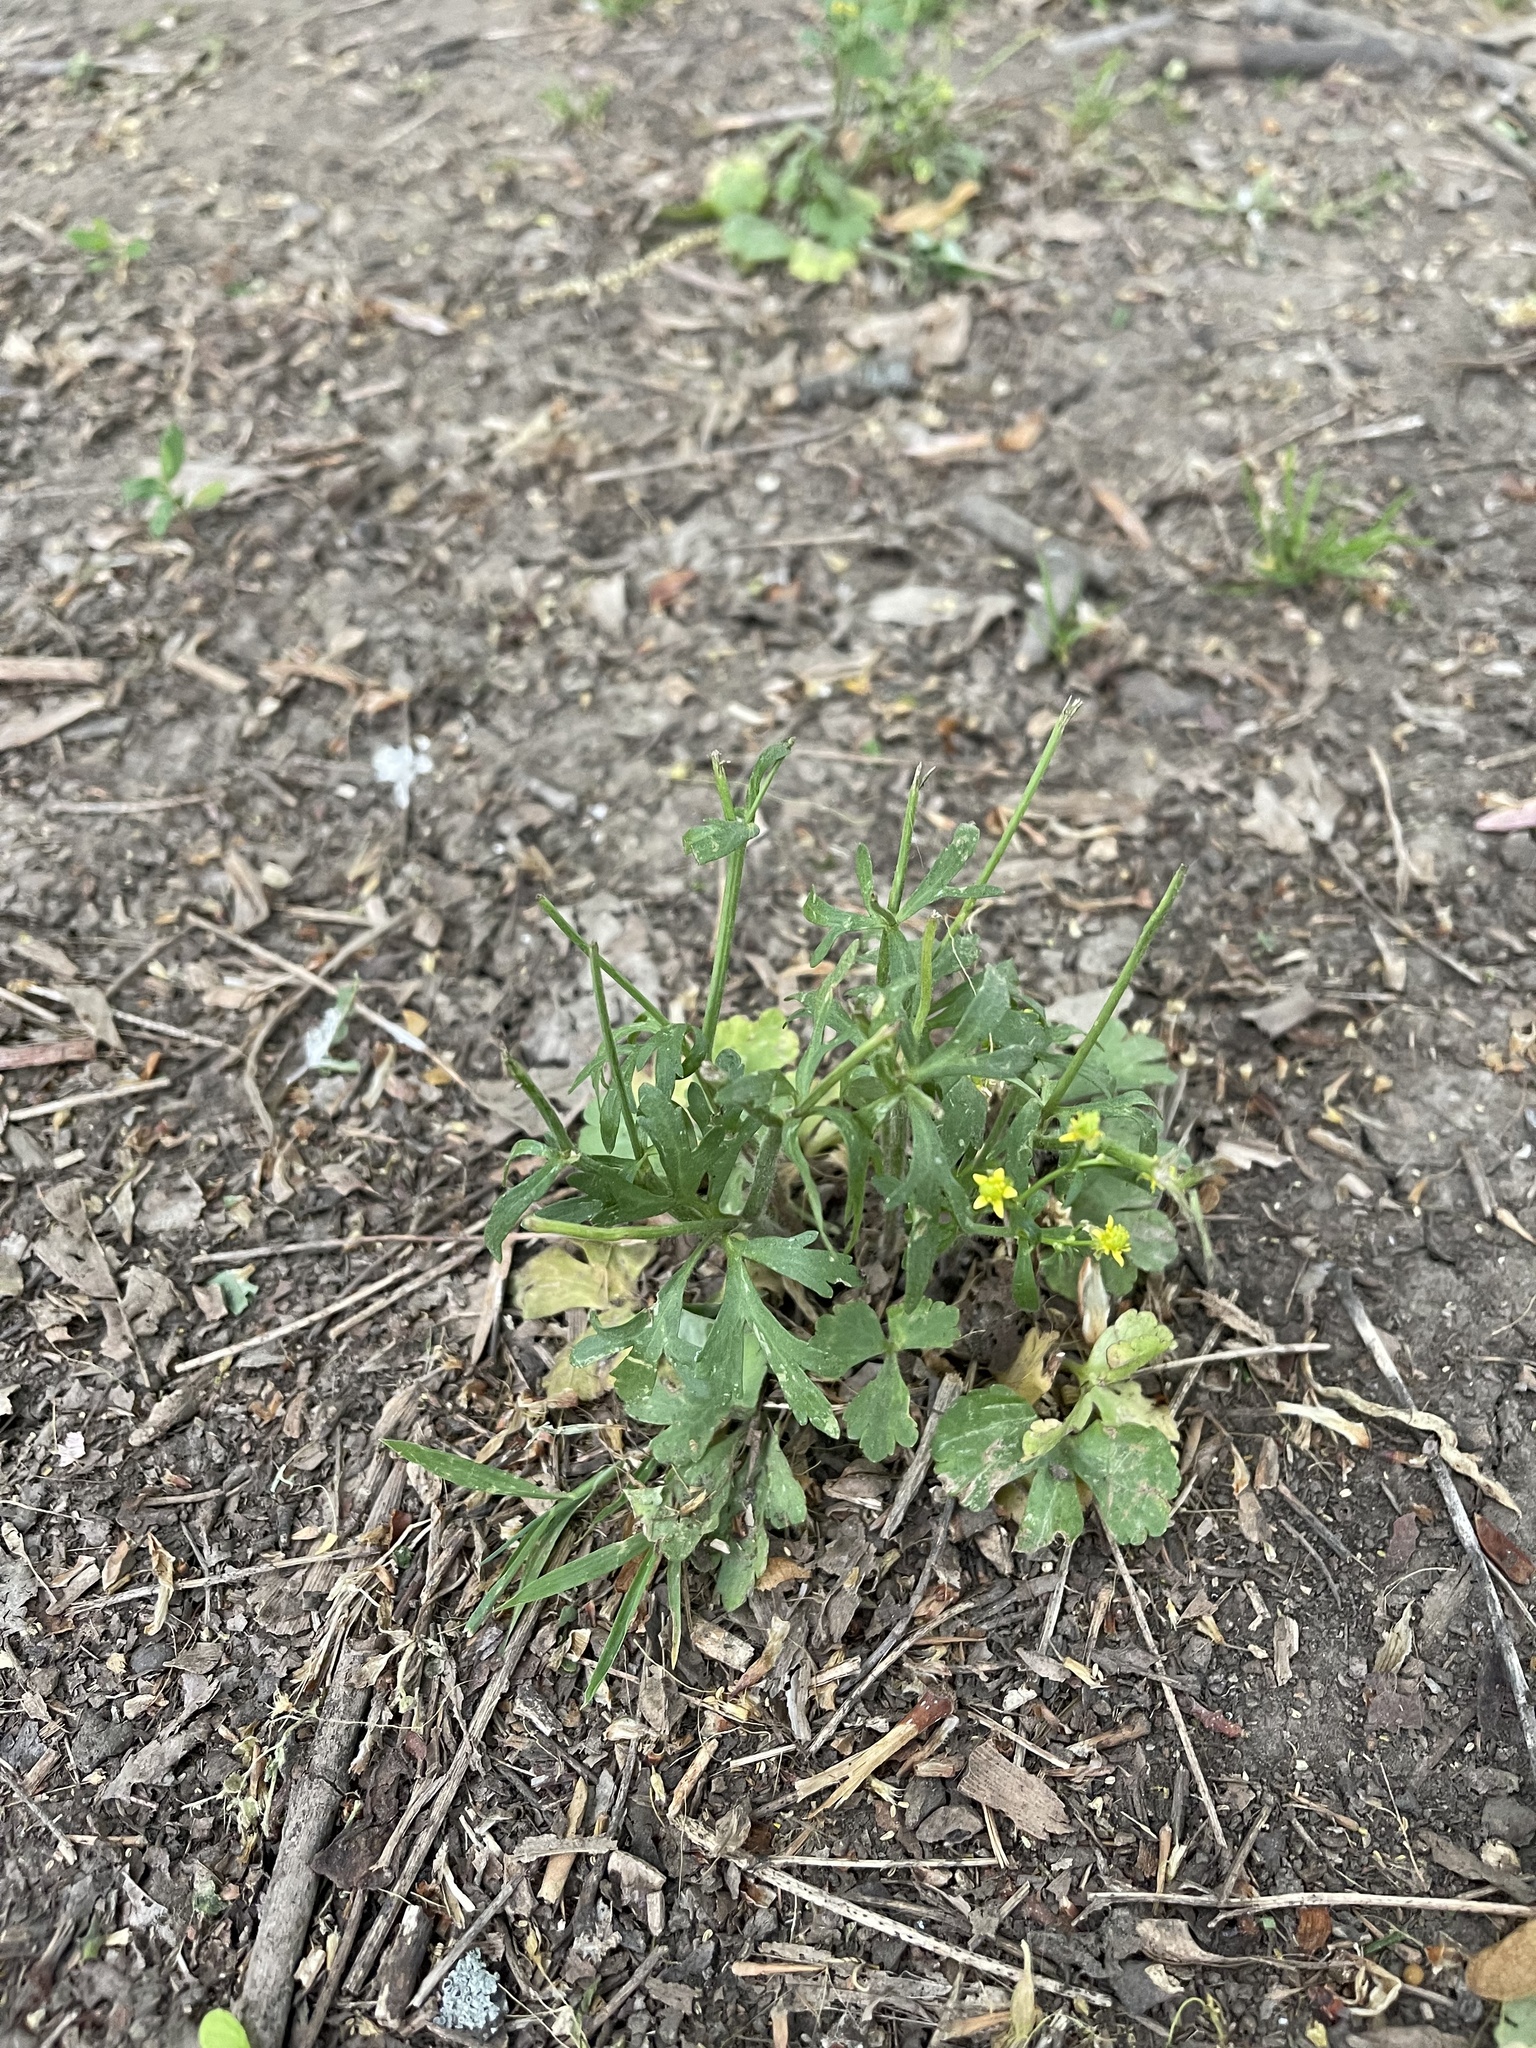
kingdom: Plantae
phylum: Tracheophyta
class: Magnoliopsida
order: Ranunculales
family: Ranunculaceae
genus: Ranunculus
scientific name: Ranunculus sceleratus
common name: Celery-leaved buttercup
